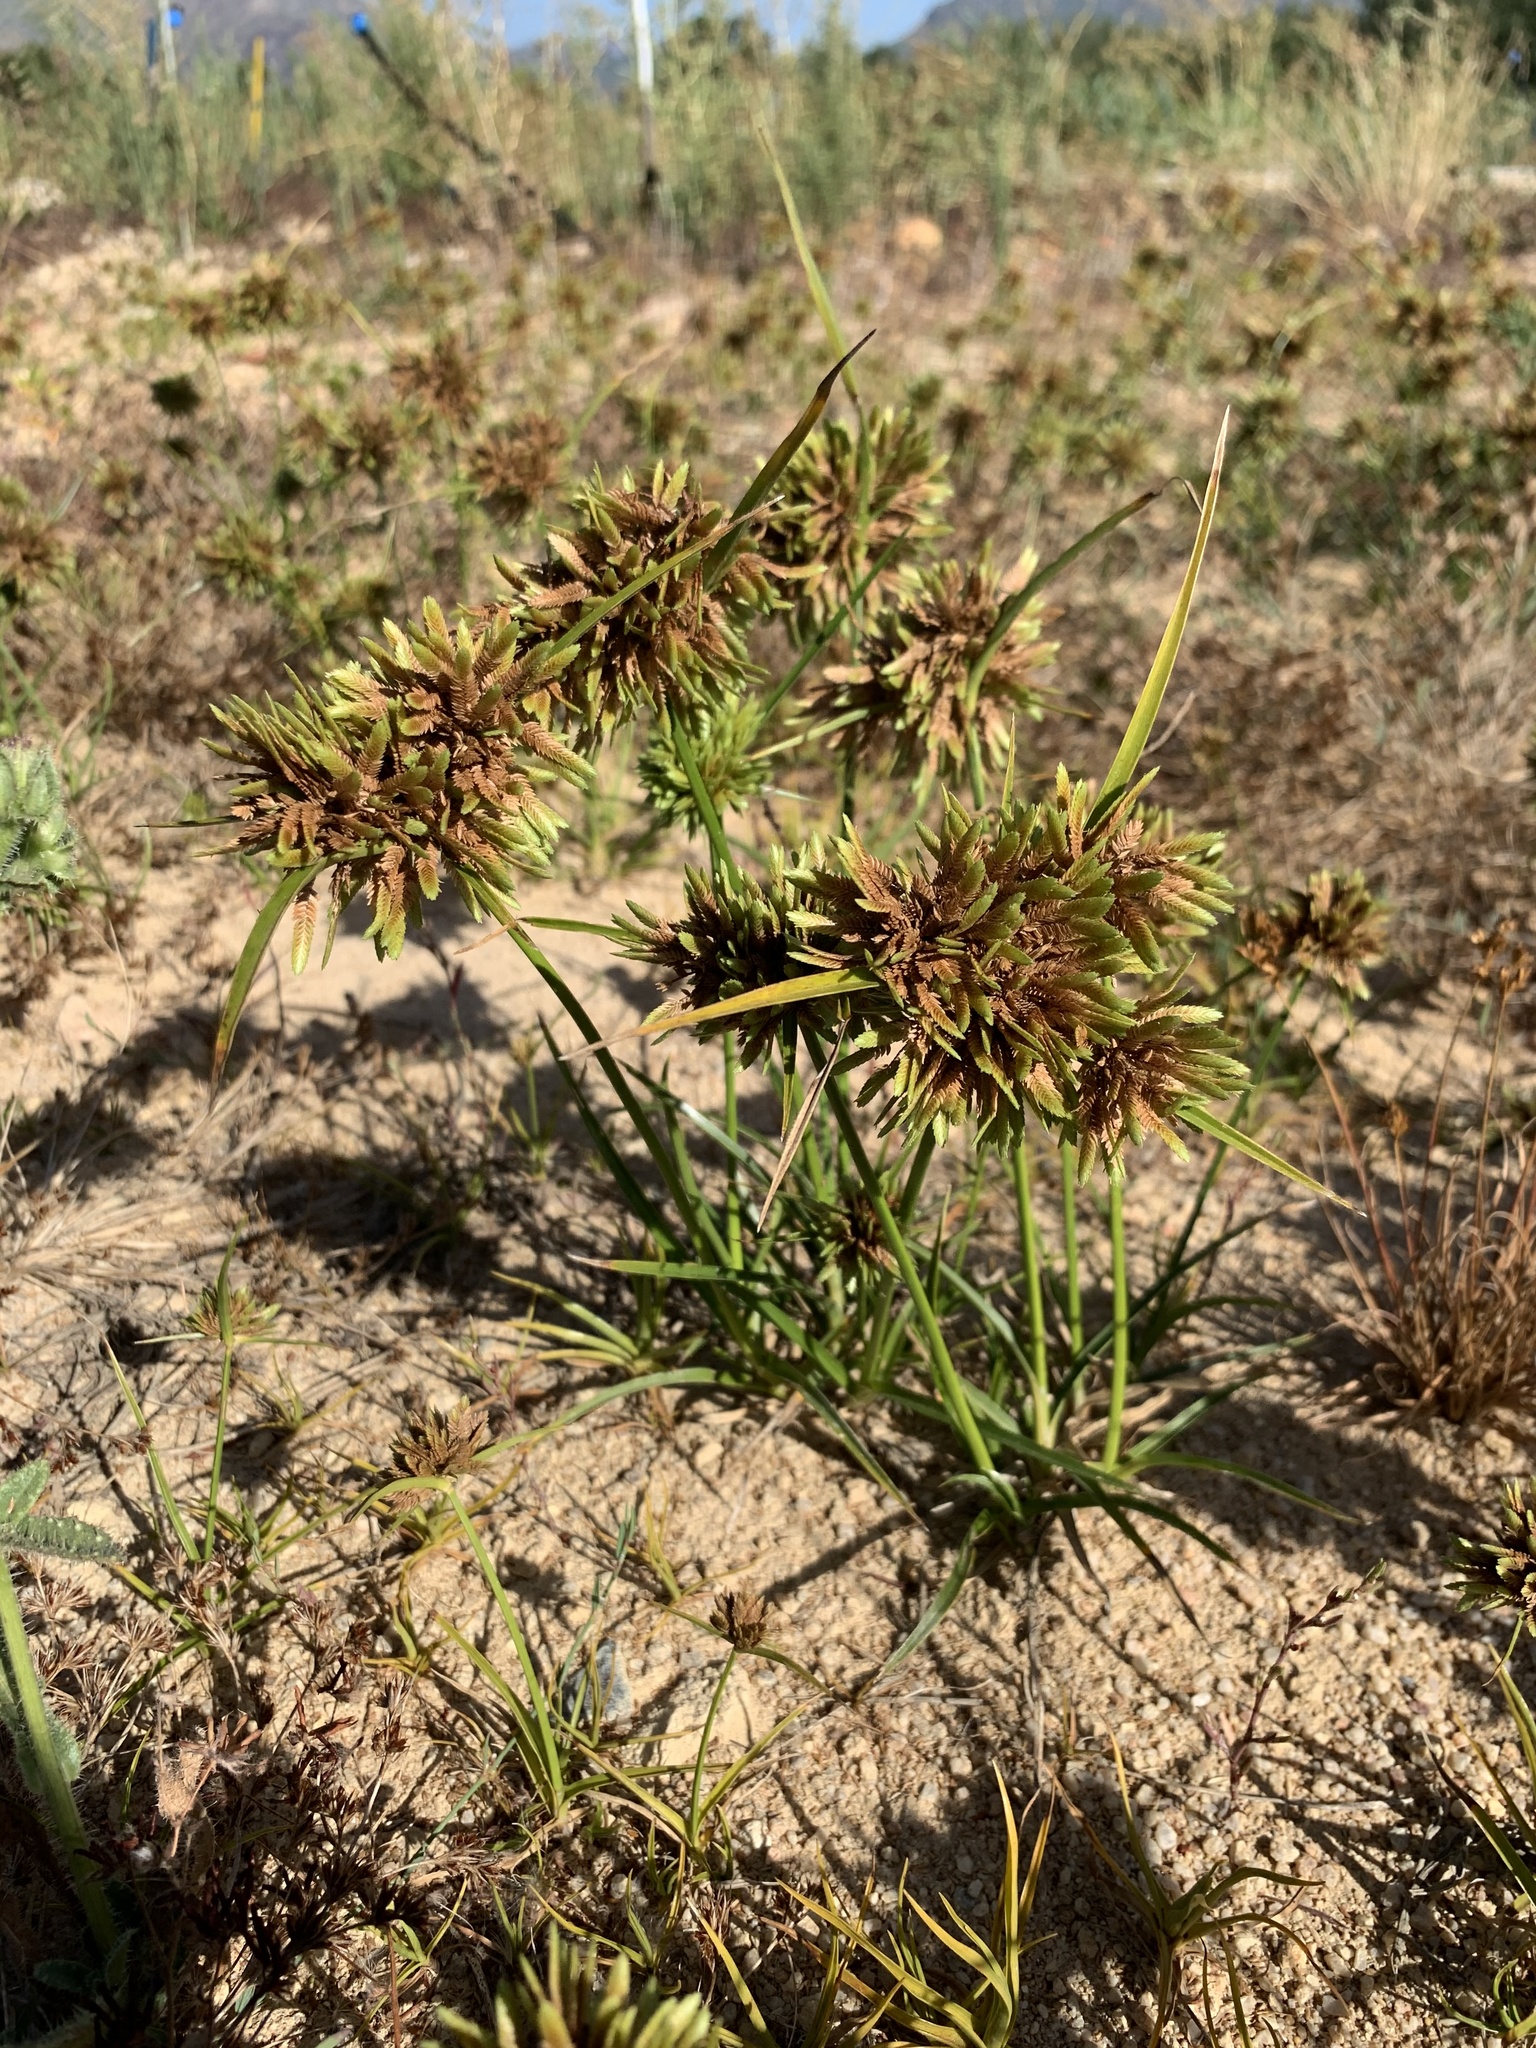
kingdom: Plantae
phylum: Tracheophyta
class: Liliopsida
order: Poales
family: Cyperaceae
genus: Cyperus
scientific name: Cyperus eragrostis
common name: Tall flatsedge
